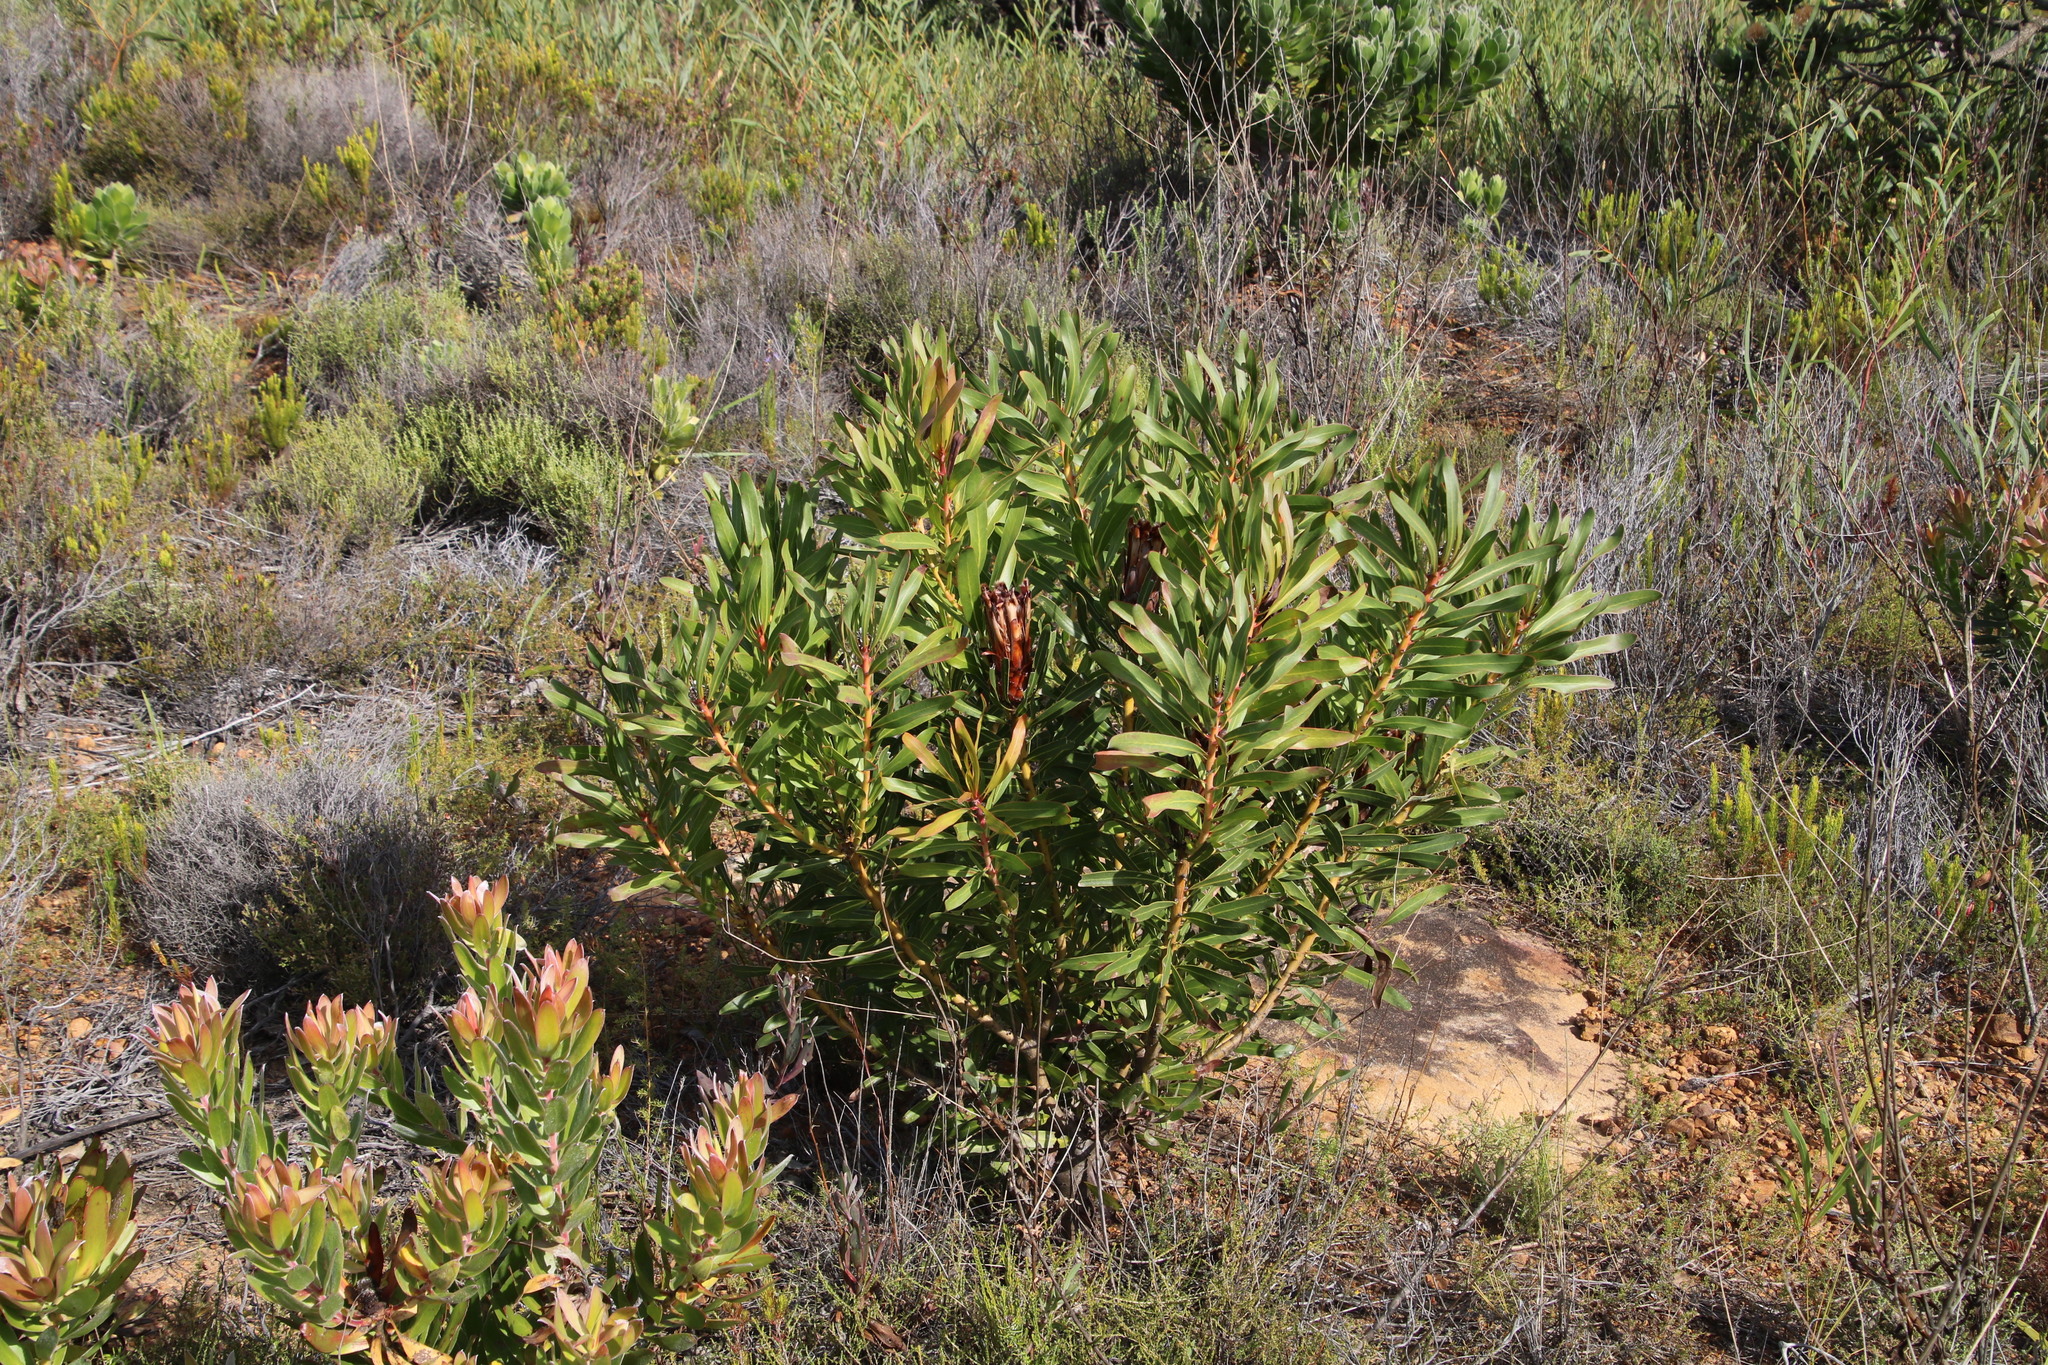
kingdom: Plantae
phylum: Tracheophyta
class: Magnoliopsida
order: Proteales
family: Proteaceae
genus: Protea
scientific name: Protea lepidocarpodendron
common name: Black-bearded protea
